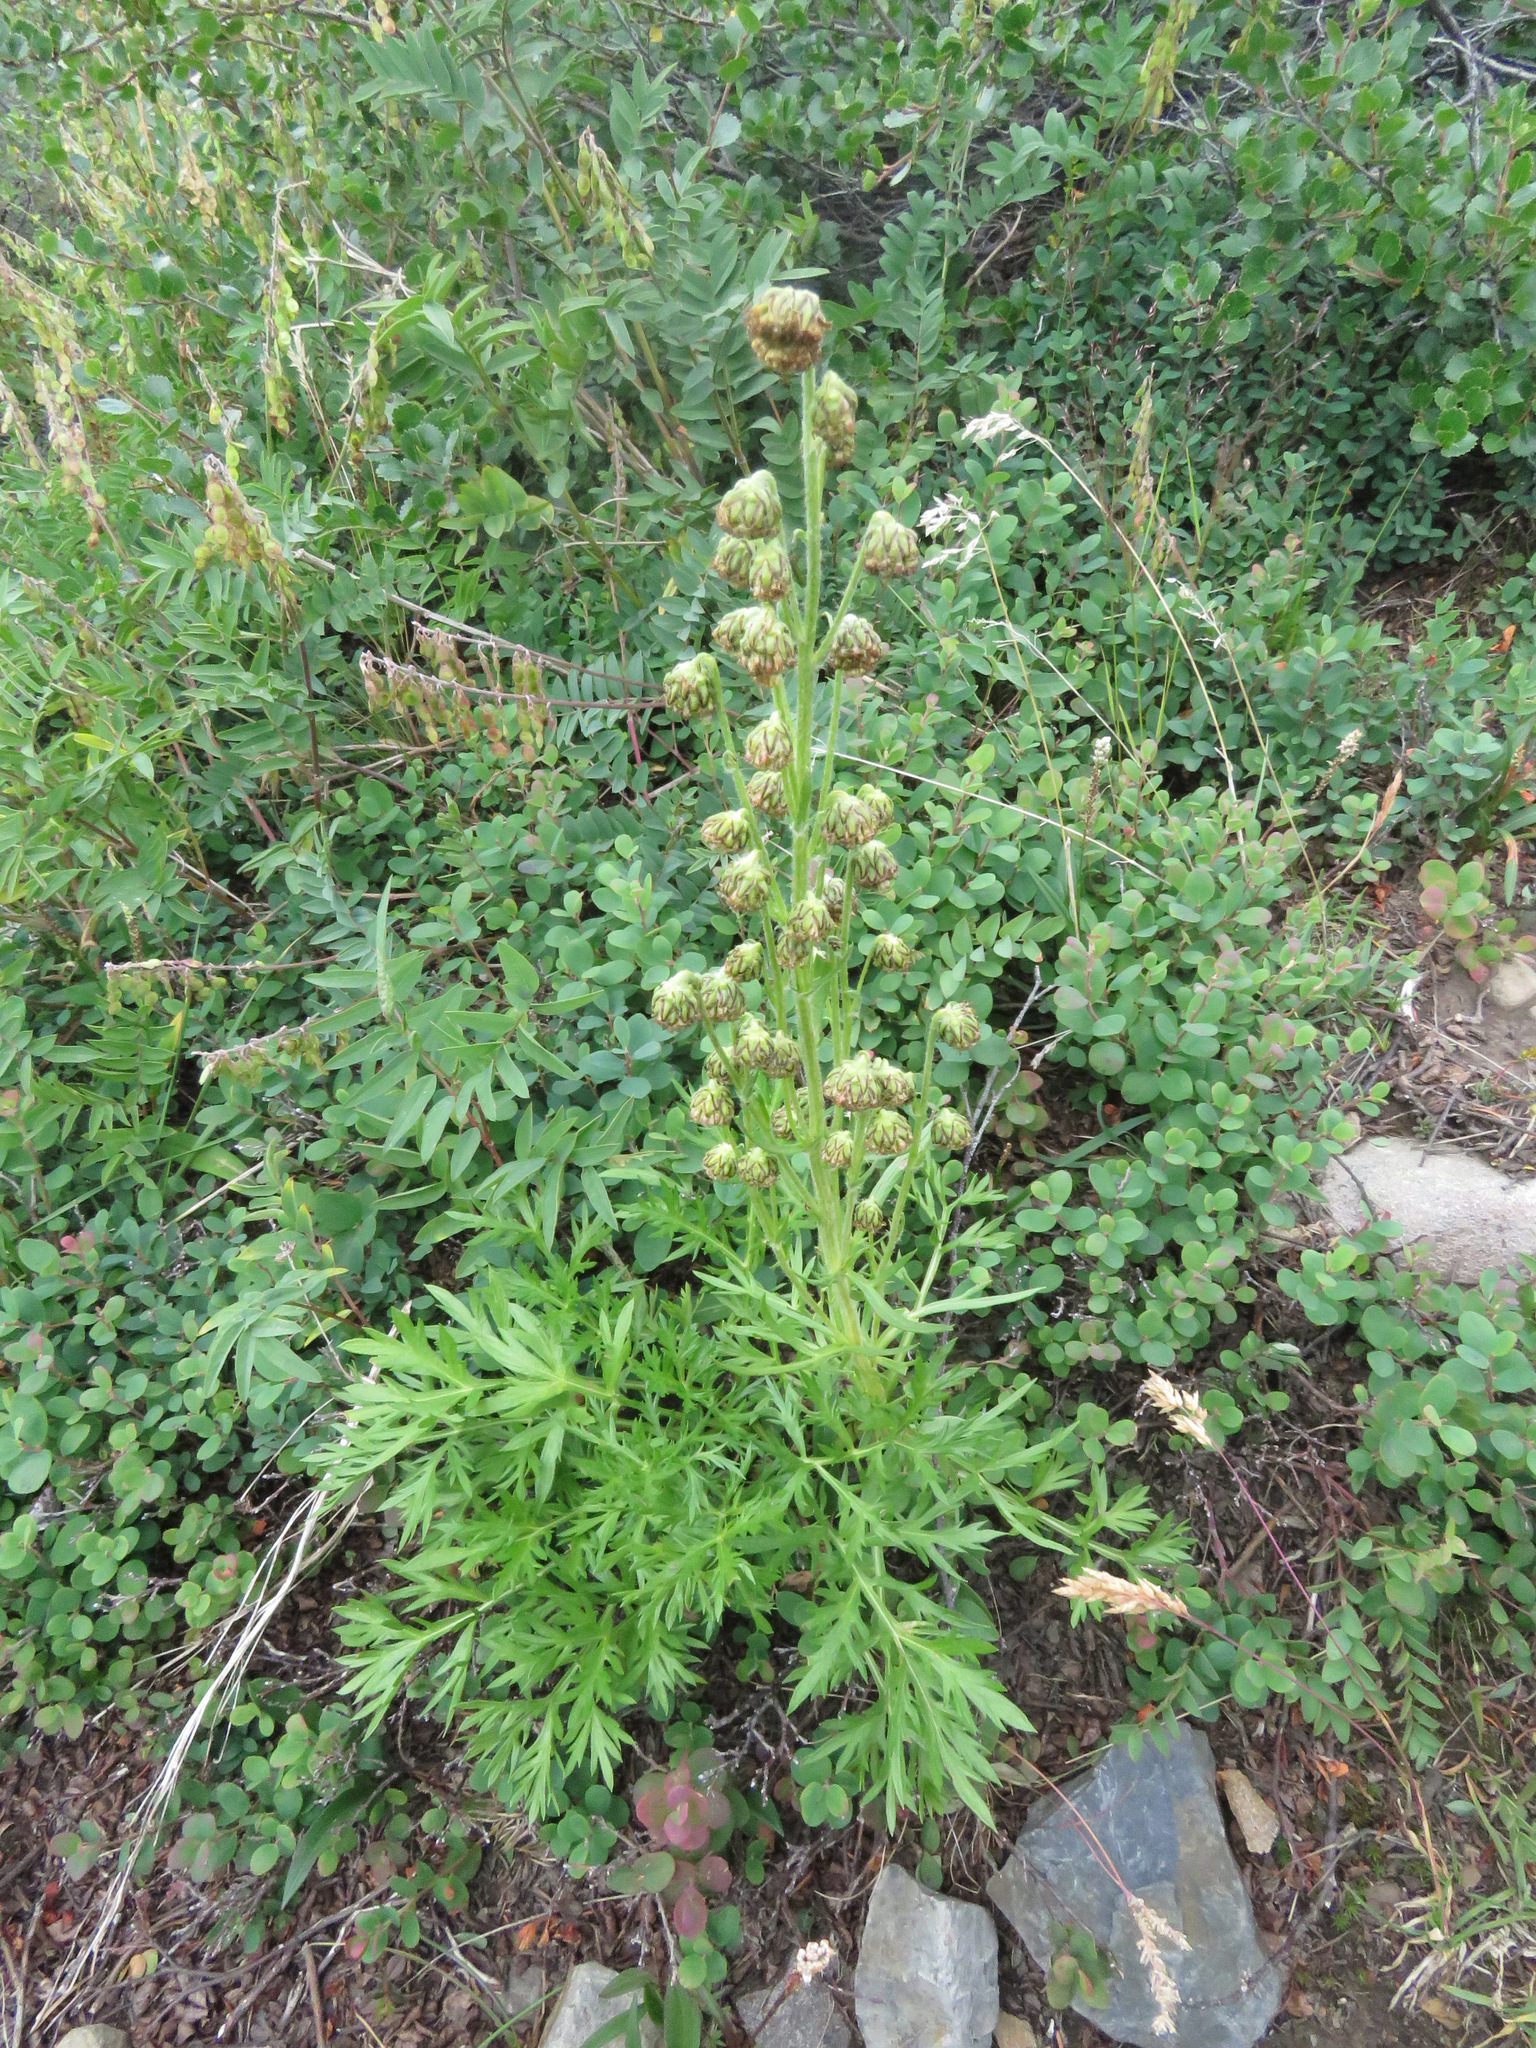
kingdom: Plantae
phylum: Tracheophyta
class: Magnoliopsida
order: Asterales
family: Asteraceae
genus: Artemisia
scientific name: Artemisia norvegica
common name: Norwegian mugwort
